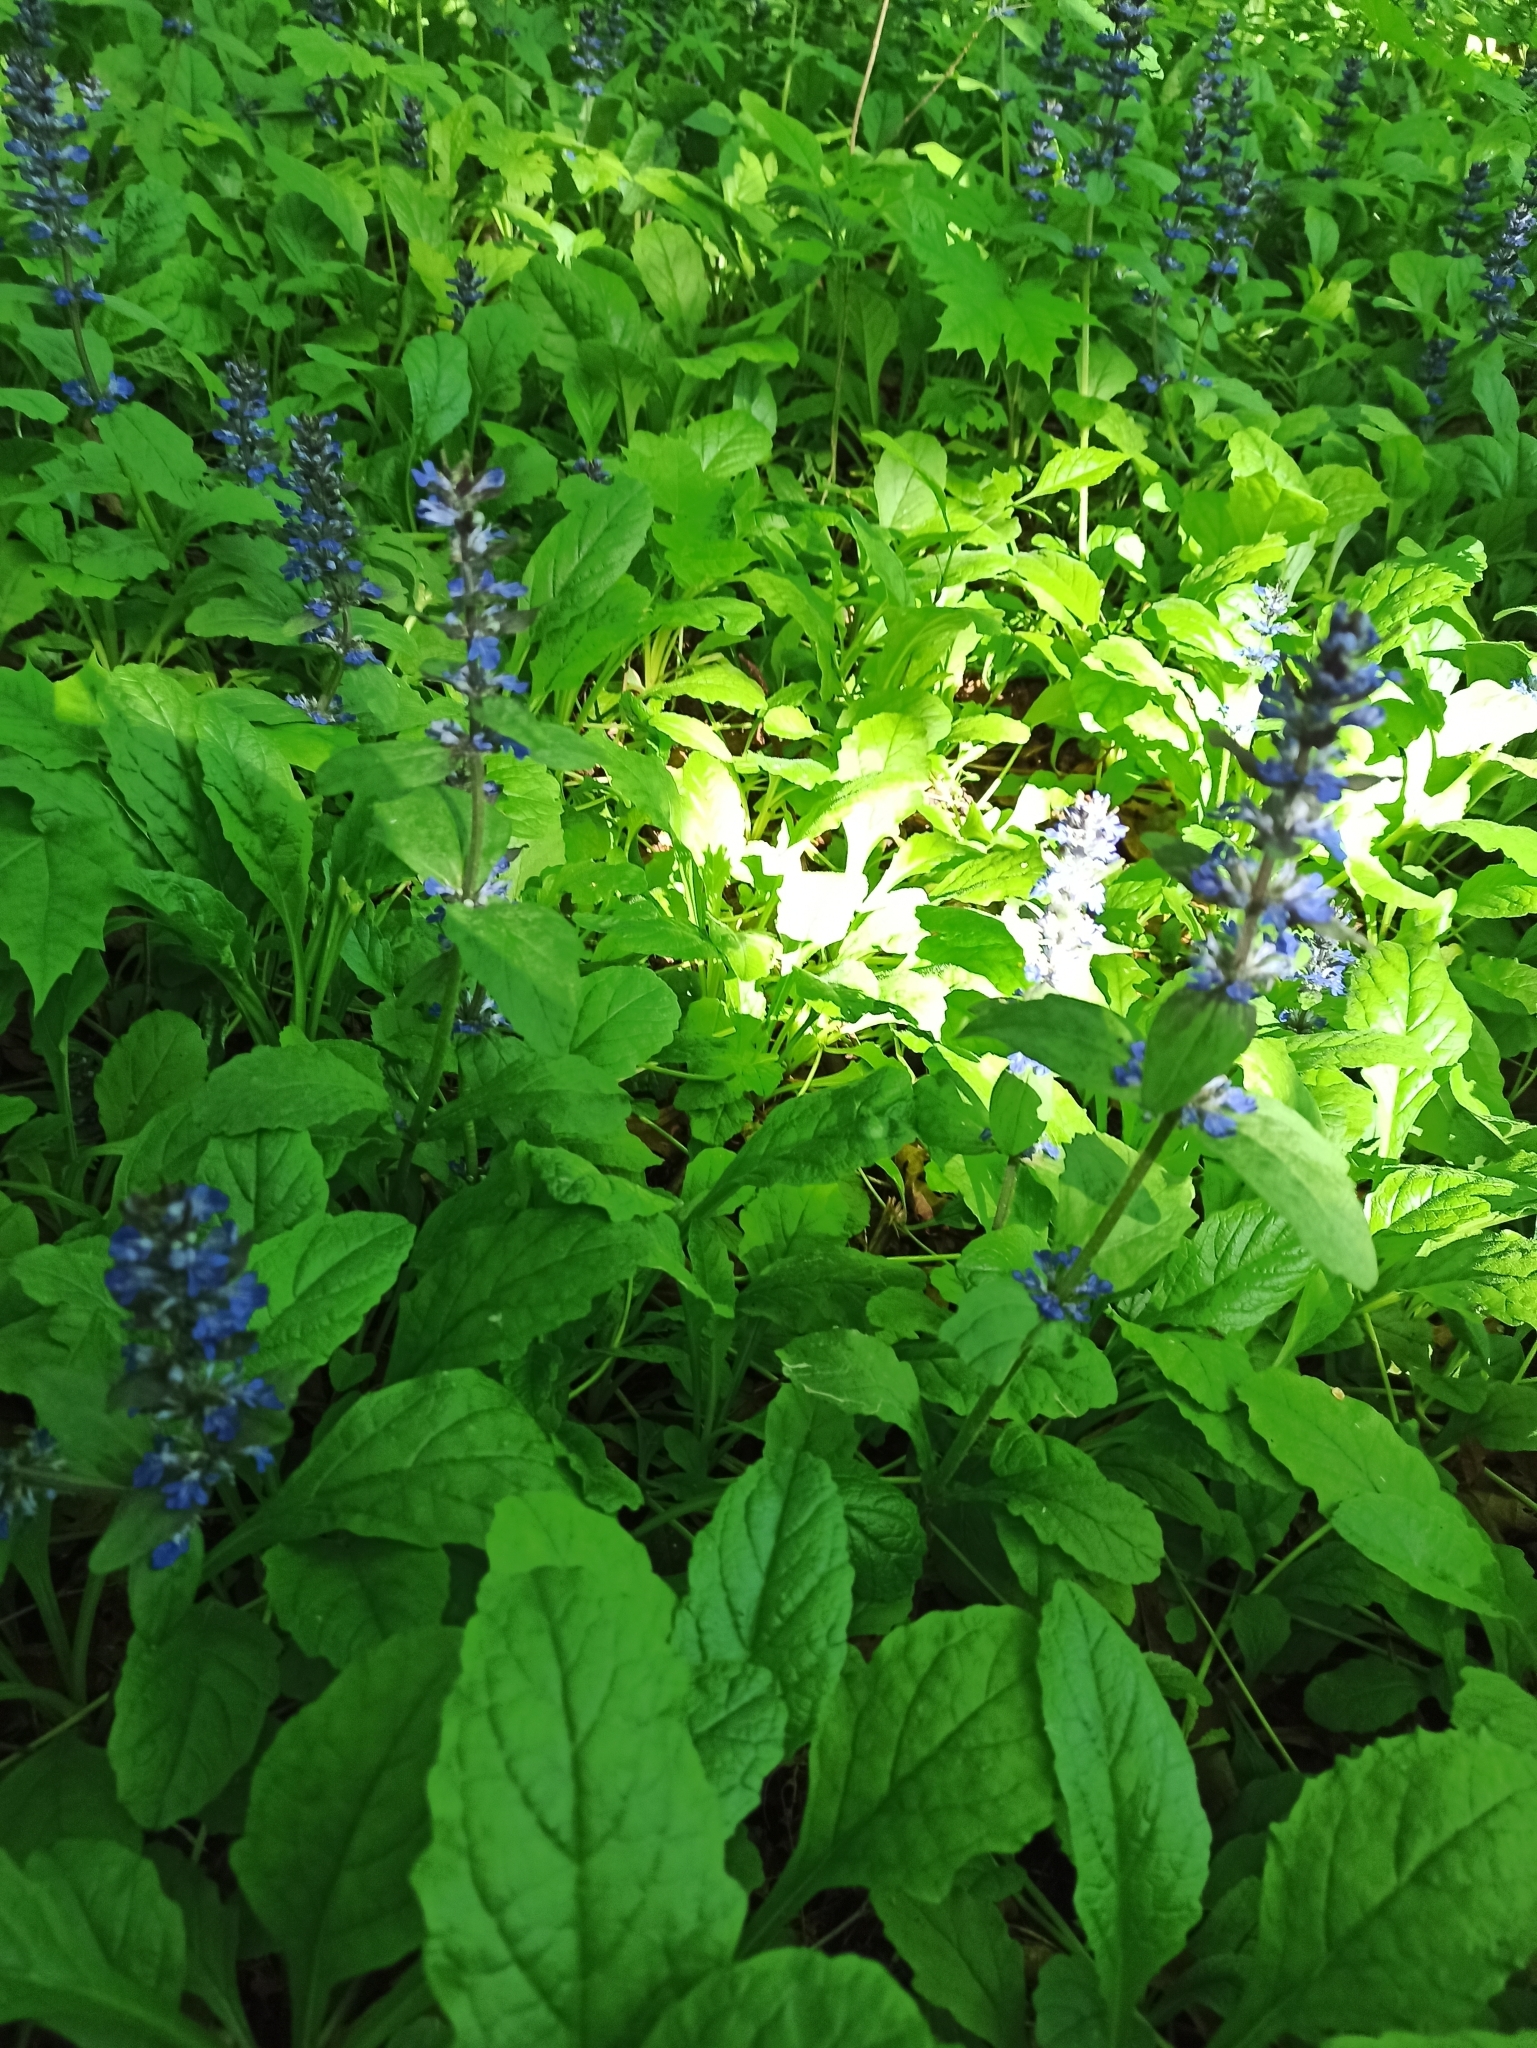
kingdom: Plantae
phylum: Tracheophyta
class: Magnoliopsida
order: Lamiales
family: Lamiaceae
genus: Ajuga
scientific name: Ajuga reptans
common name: Bugle
